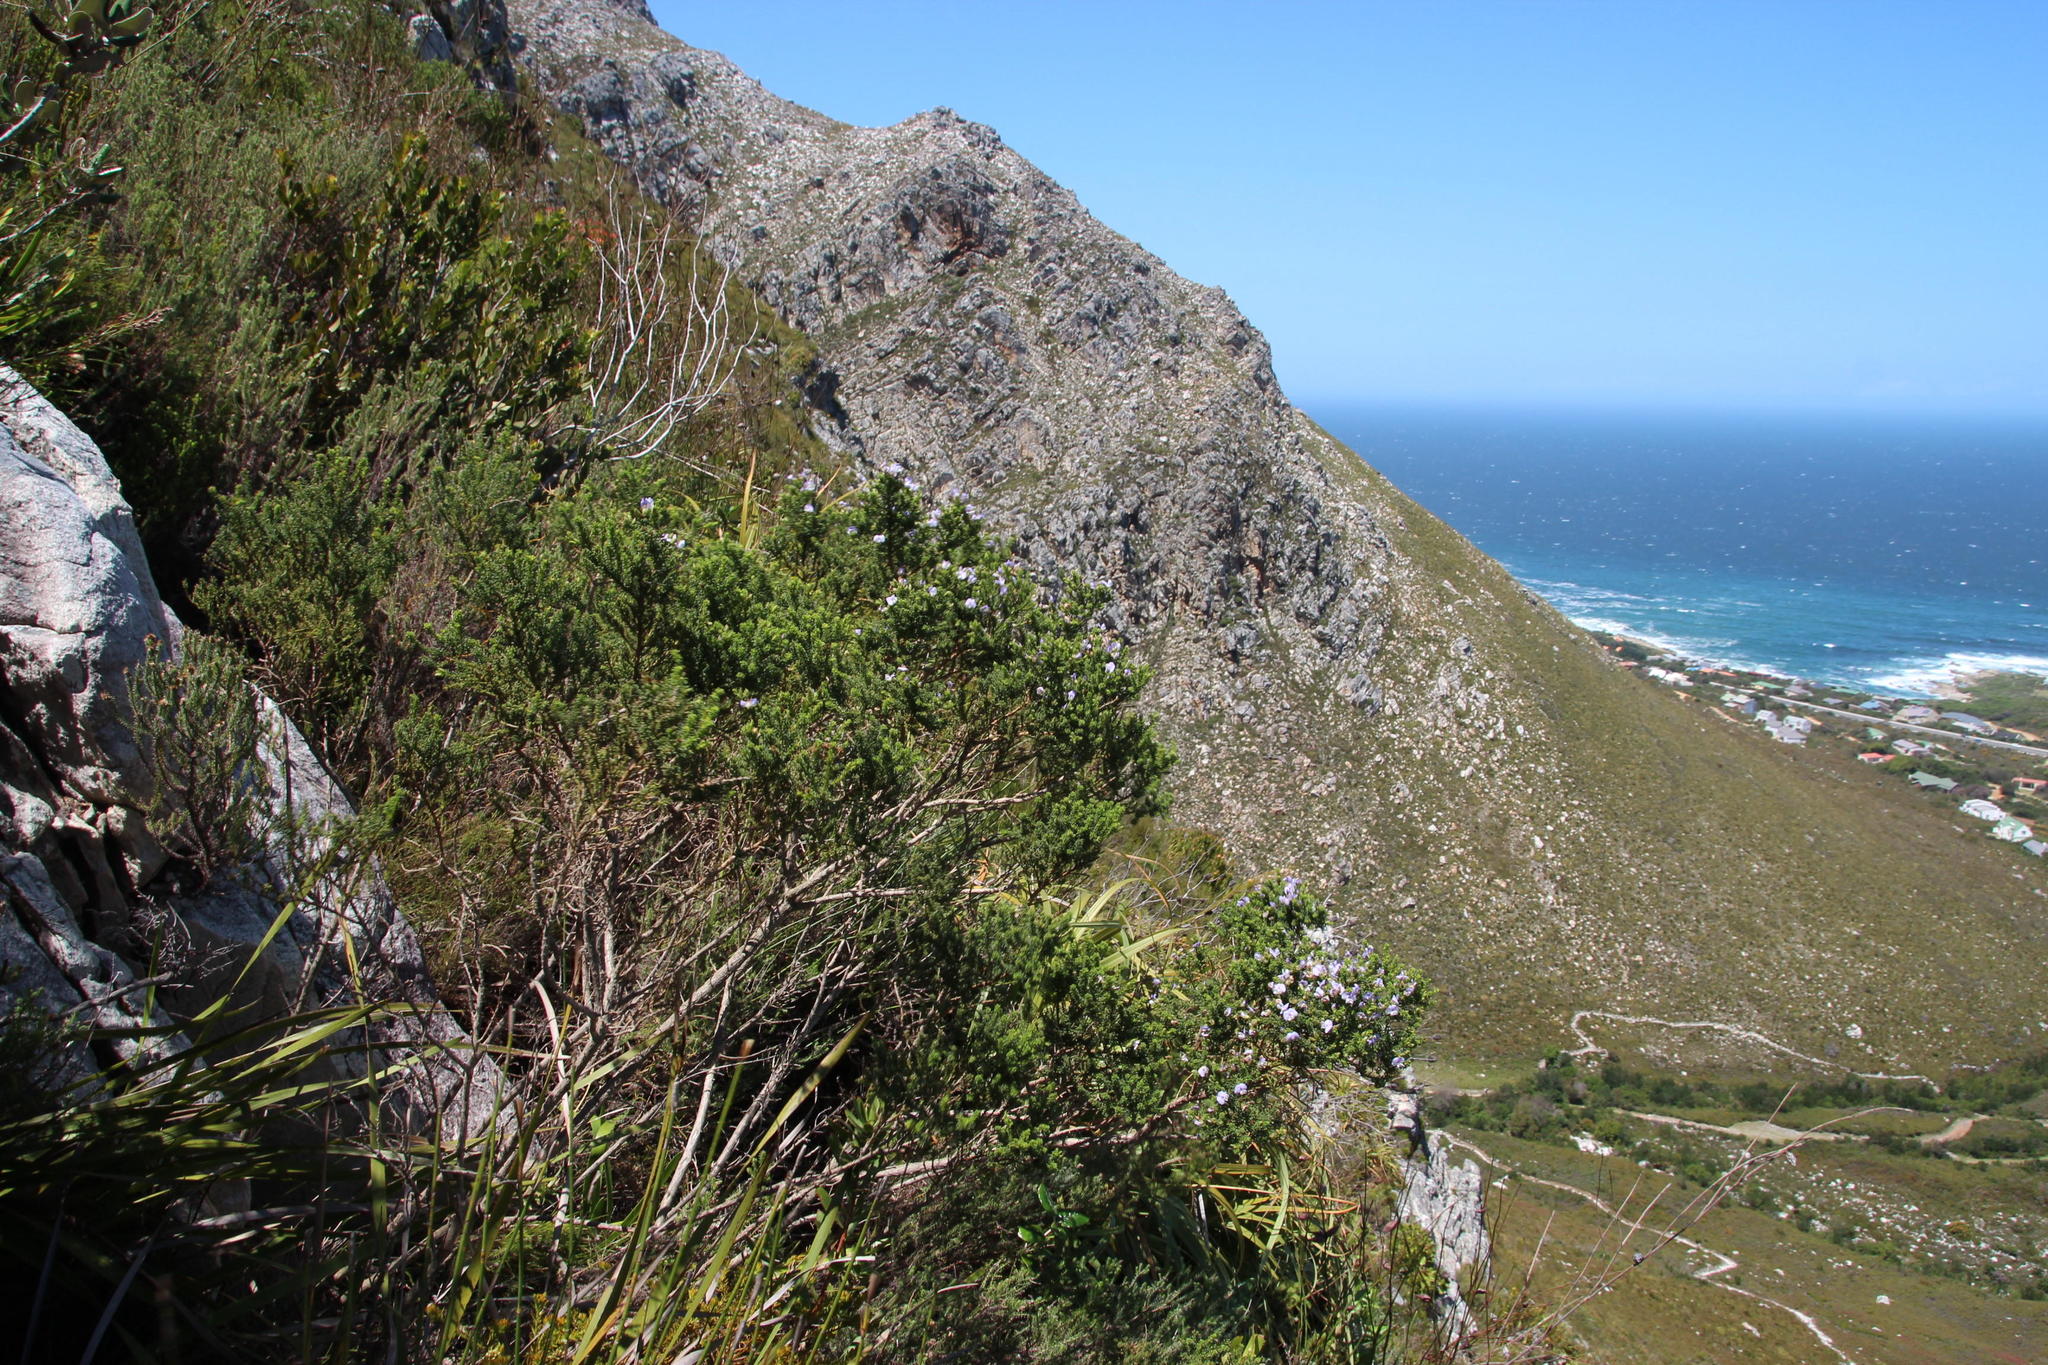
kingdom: Plantae
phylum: Tracheophyta
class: Magnoliopsida
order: Fabales
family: Fabaceae
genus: Psoralea
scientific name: Psoralea aculeata
